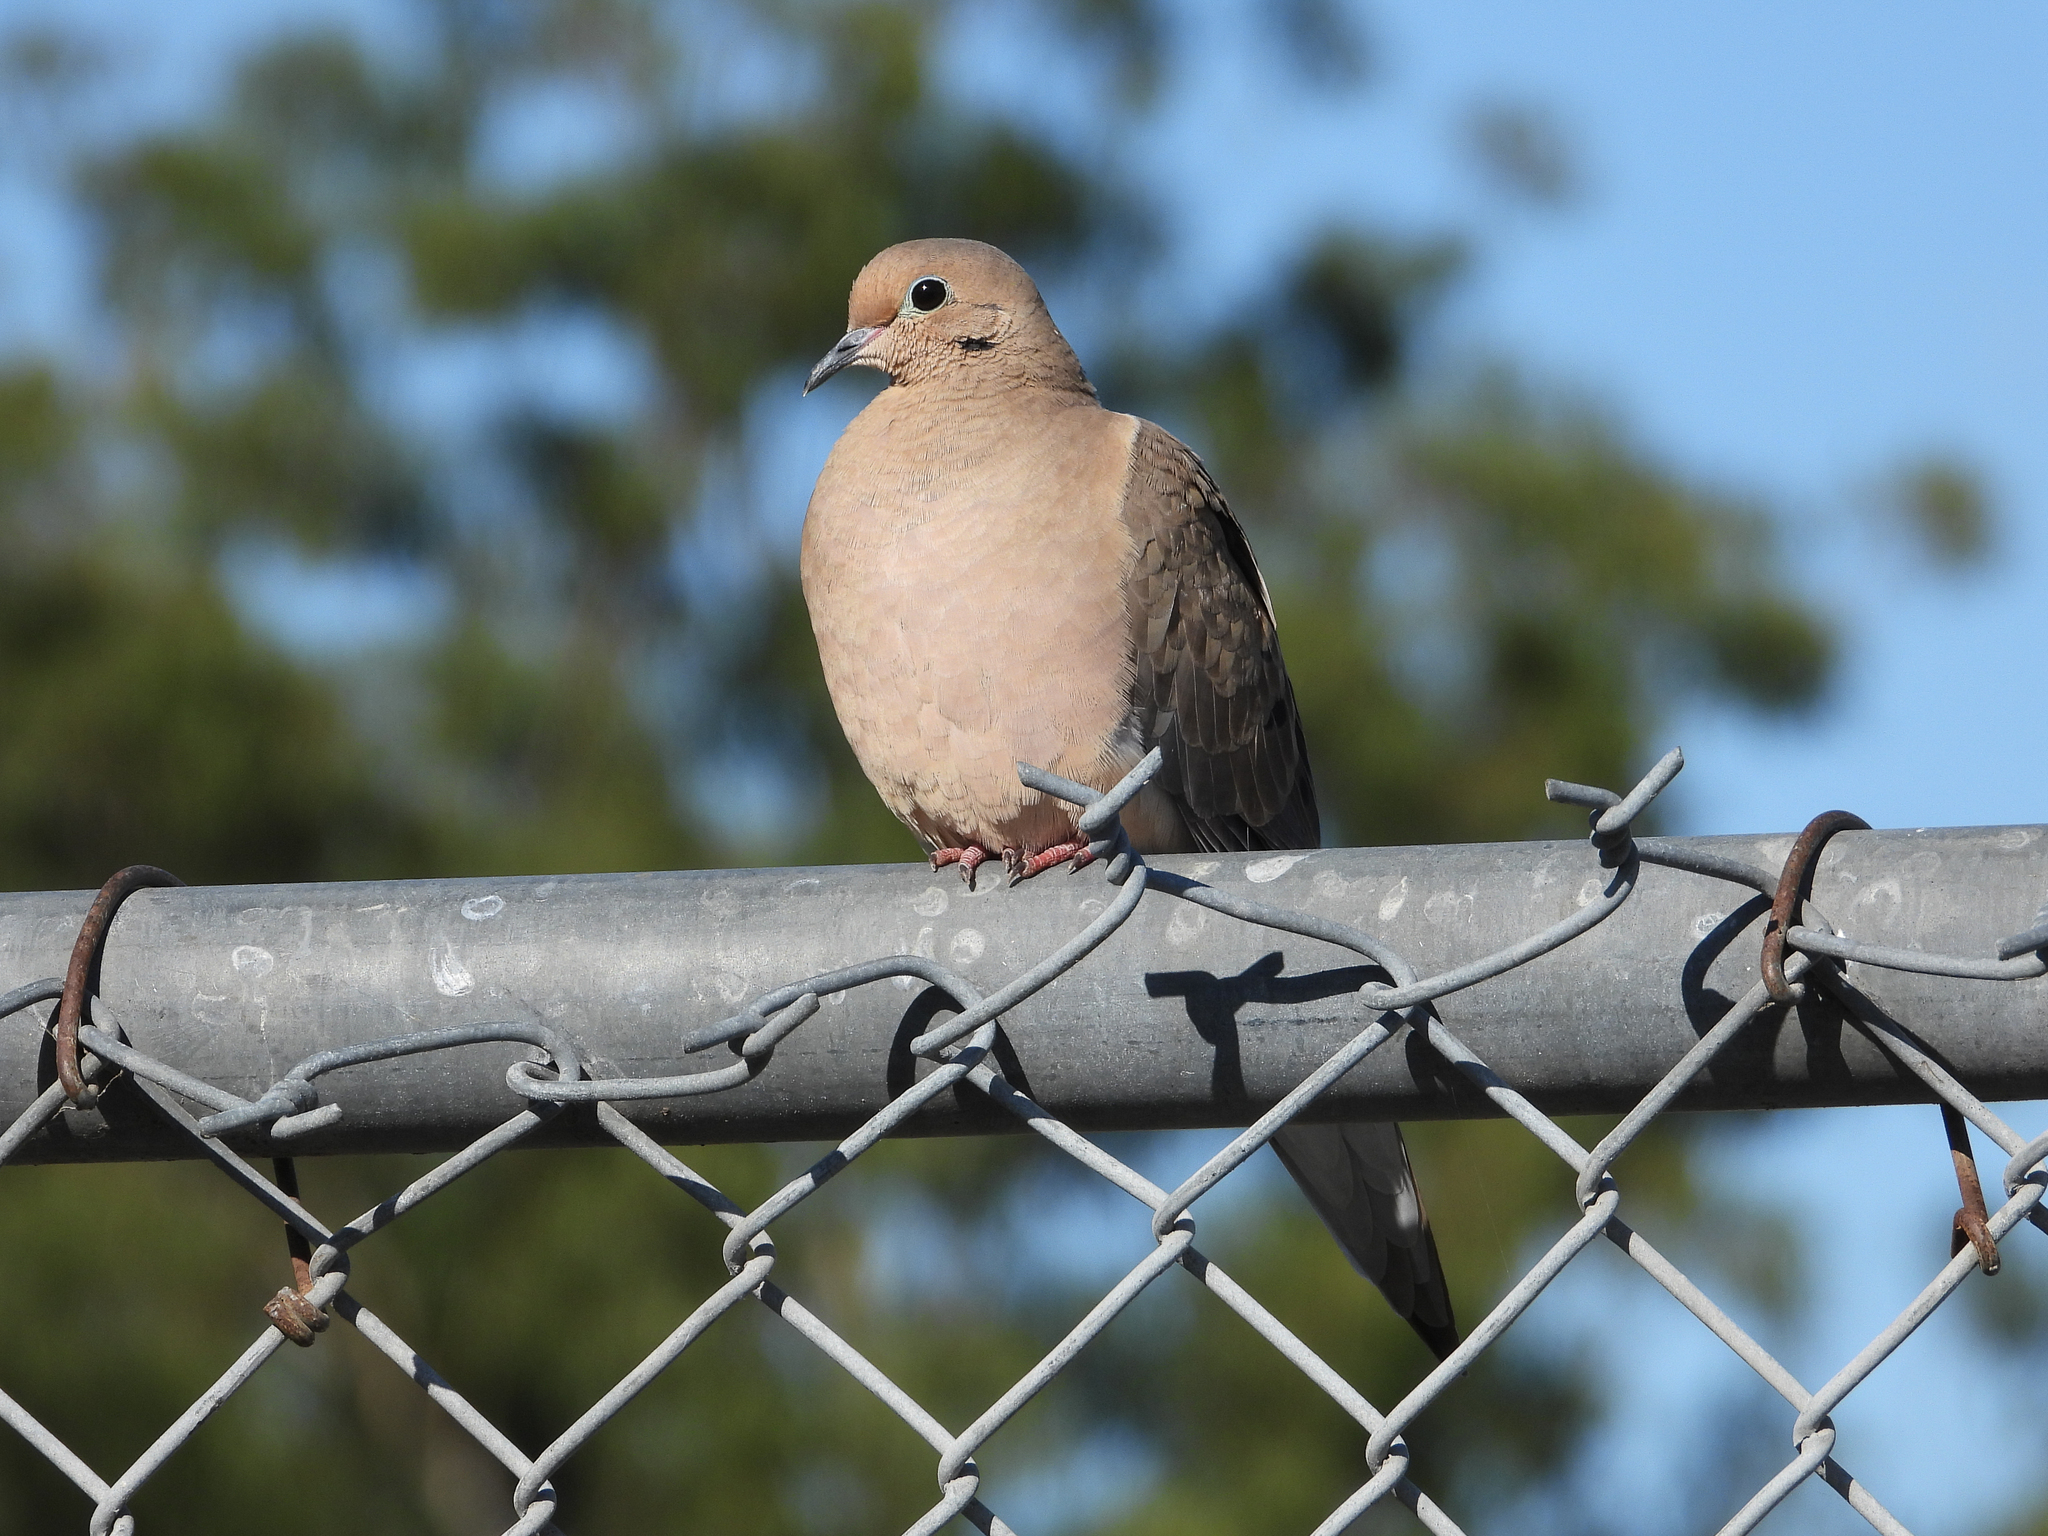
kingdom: Animalia
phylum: Chordata
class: Aves
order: Columbiformes
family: Columbidae
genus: Zenaida
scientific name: Zenaida macroura
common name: Mourning dove
